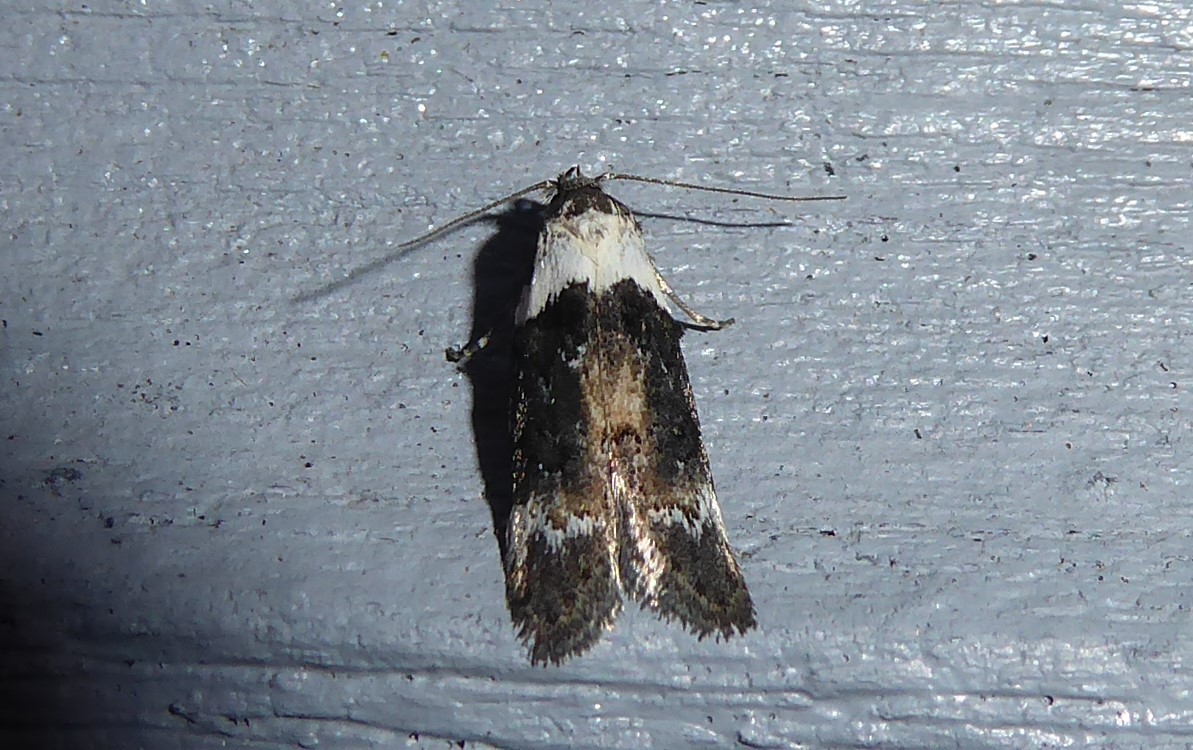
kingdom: Animalia
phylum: Arthropoda
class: Insecta
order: Lepidoptera
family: Oecophoridae
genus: Trachypepla
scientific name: Trachypepla euryleucota
